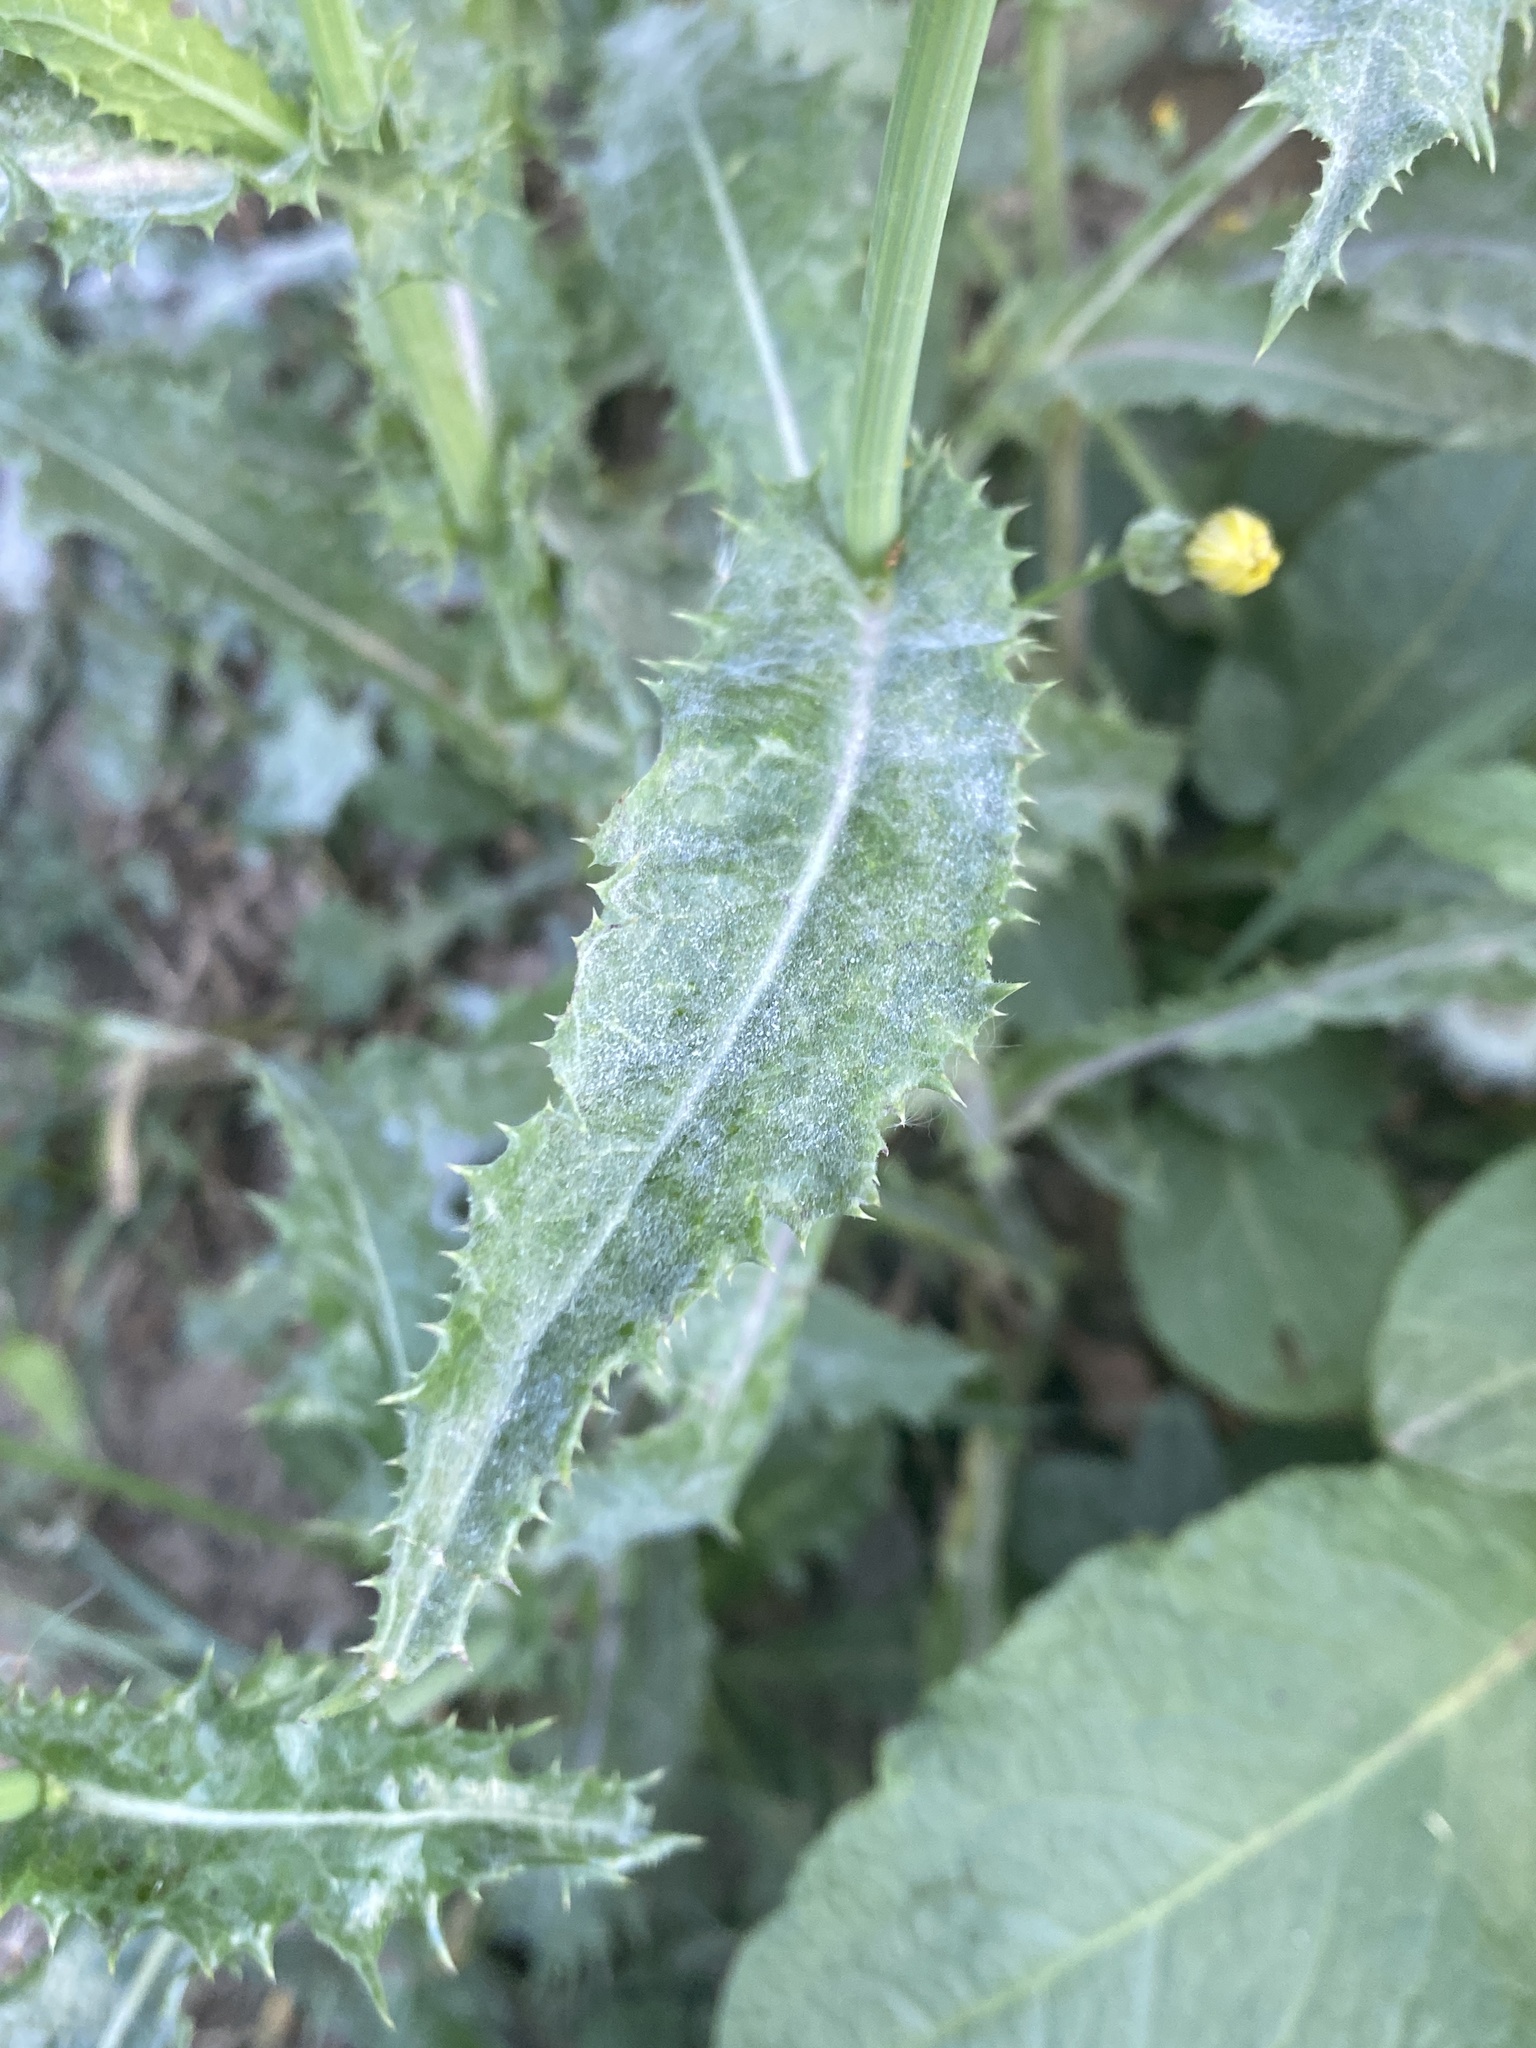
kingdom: Plantae
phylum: Tracheophyta
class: Magnoliopsida
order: Asterales
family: Asteraceae
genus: Sonchus
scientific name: Sonchus asper
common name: Prickly sow-thistle
